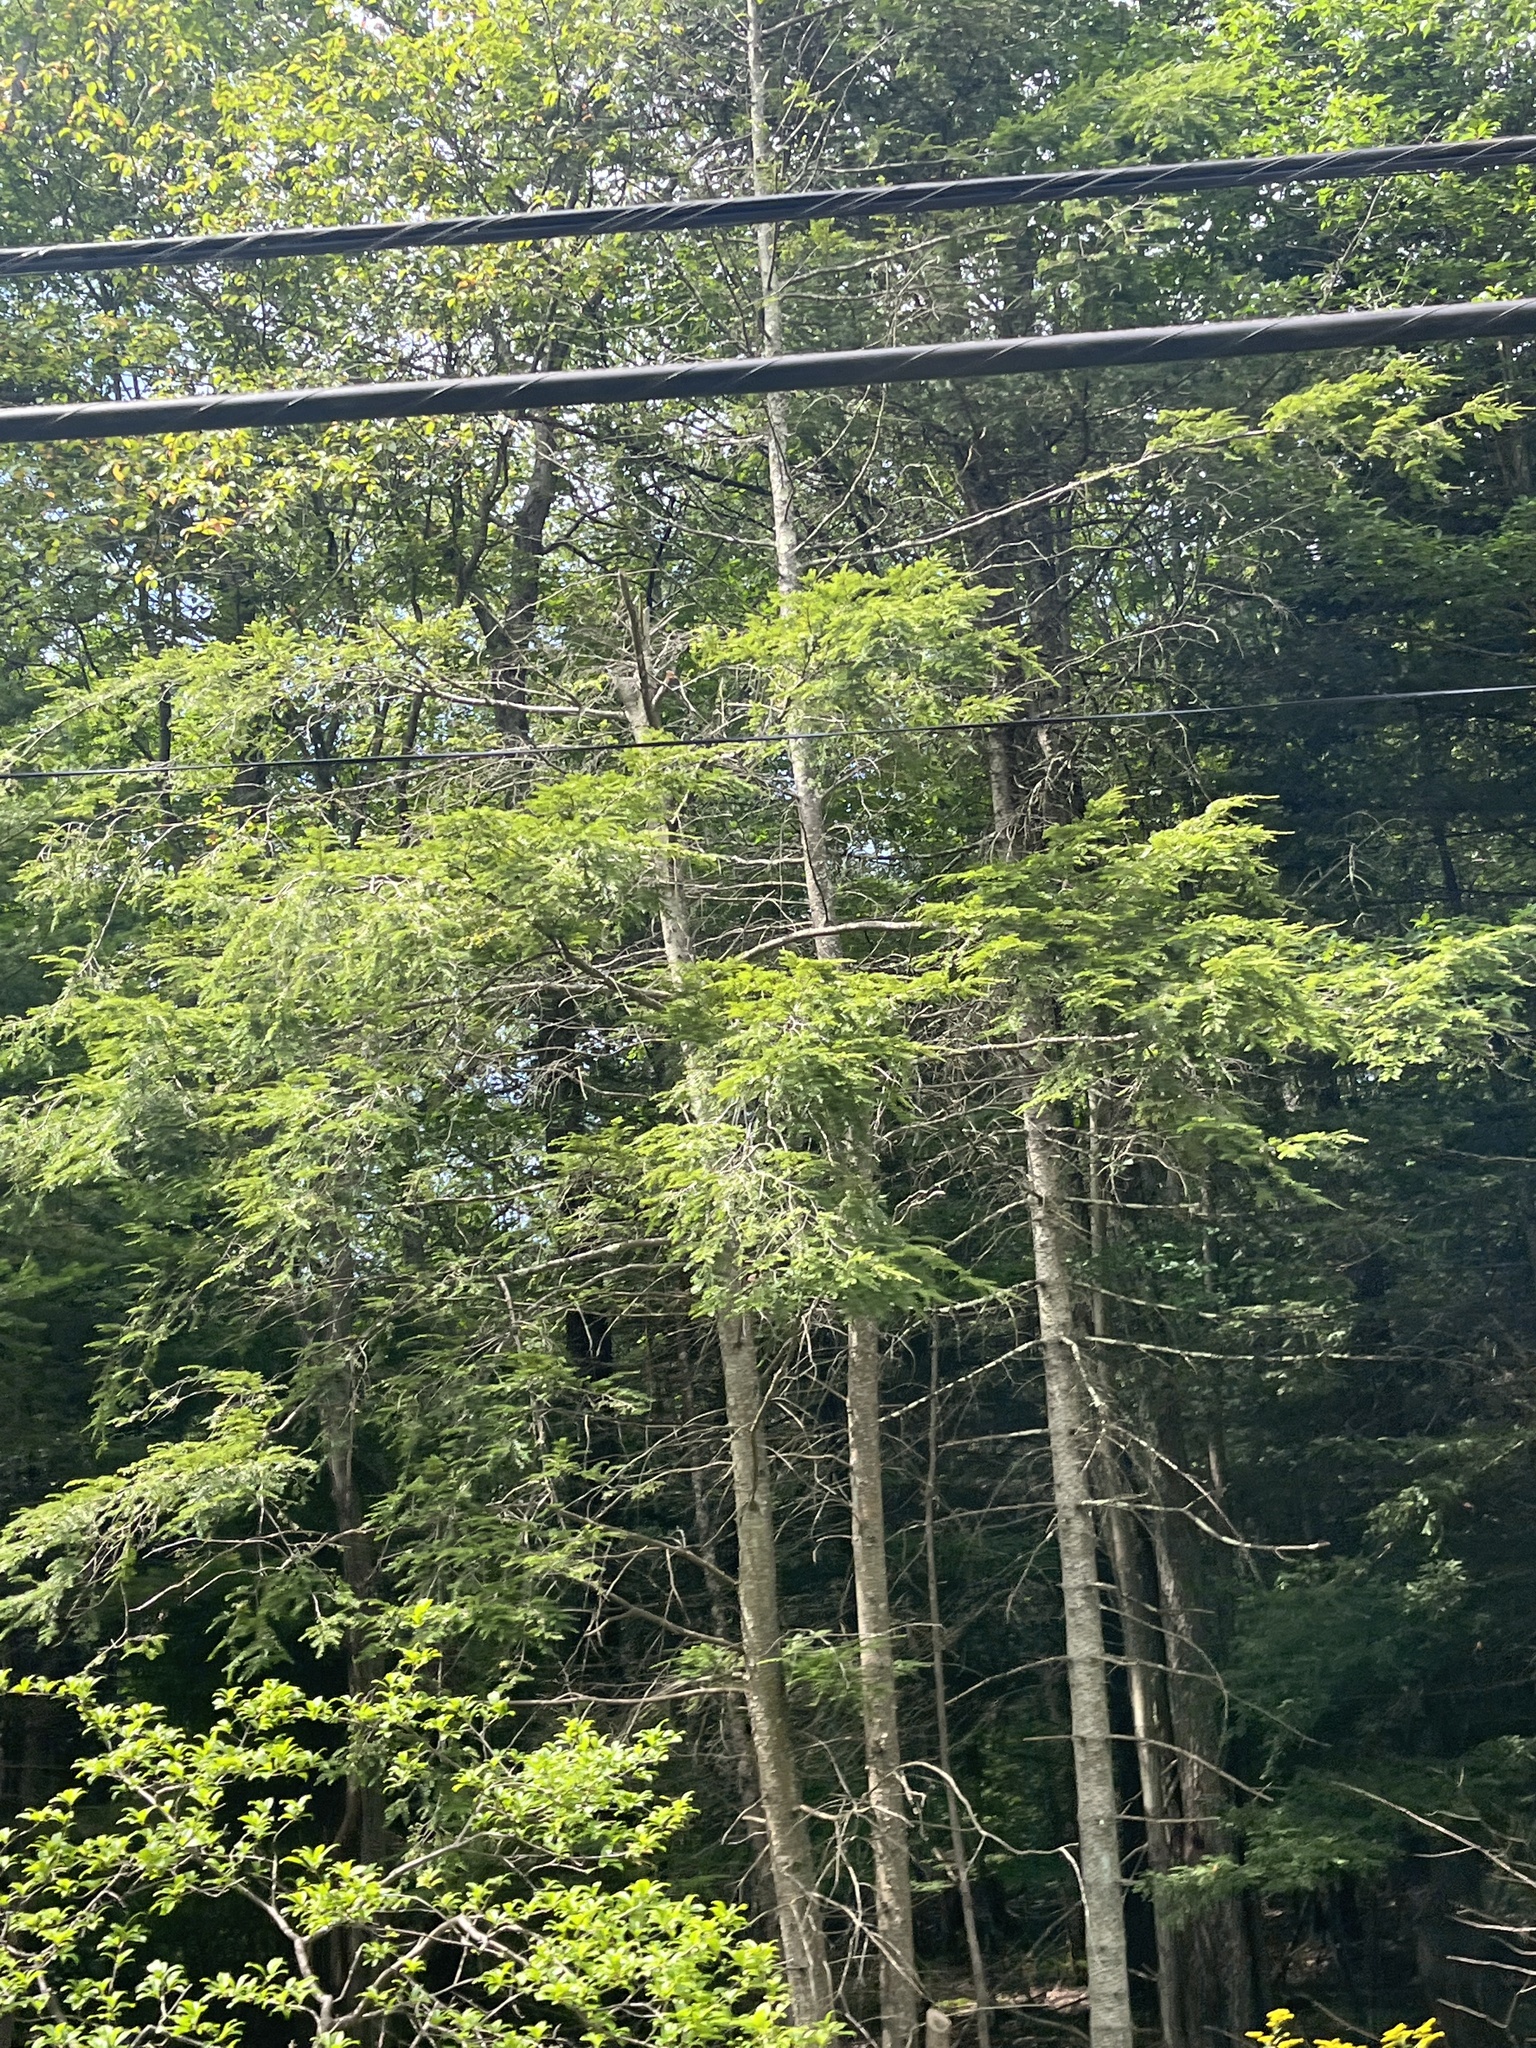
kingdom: Plantae
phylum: Tracheophyta
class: Pinopsida
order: Pinales
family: Pinaceae
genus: Tsuga
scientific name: Tsuga canadensis
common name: Eastern hemlock
